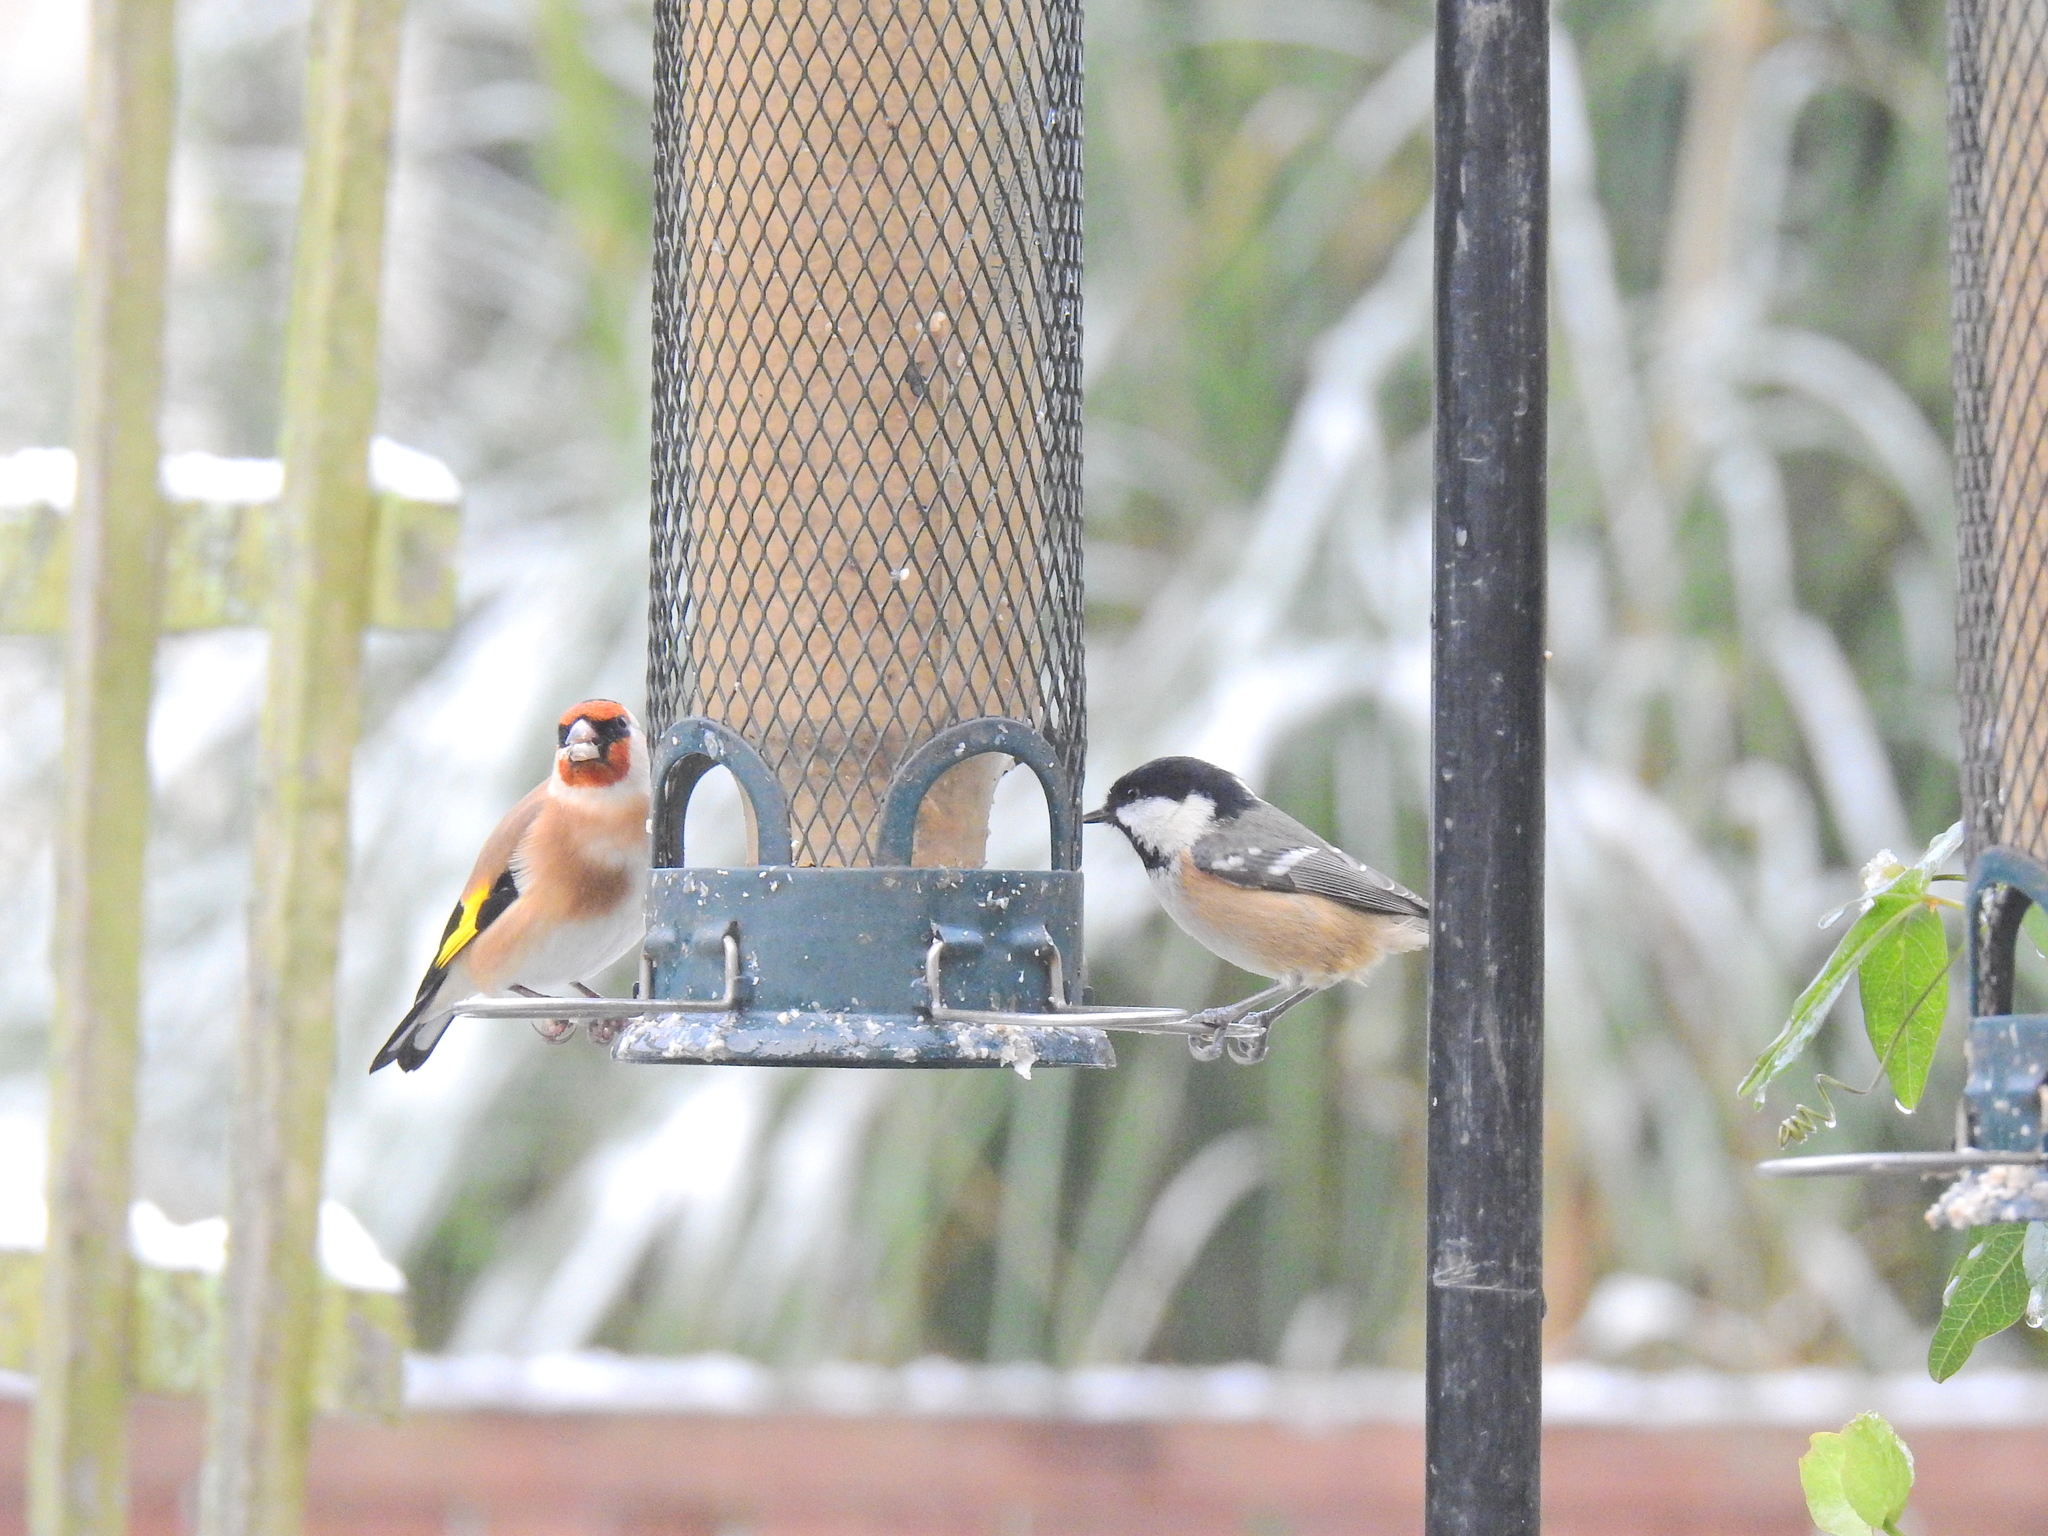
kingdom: Animalia
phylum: Chordata
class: Aves
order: Passeriformes
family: Paridae
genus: Periparus
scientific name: Periparus ater
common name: Coal tit
